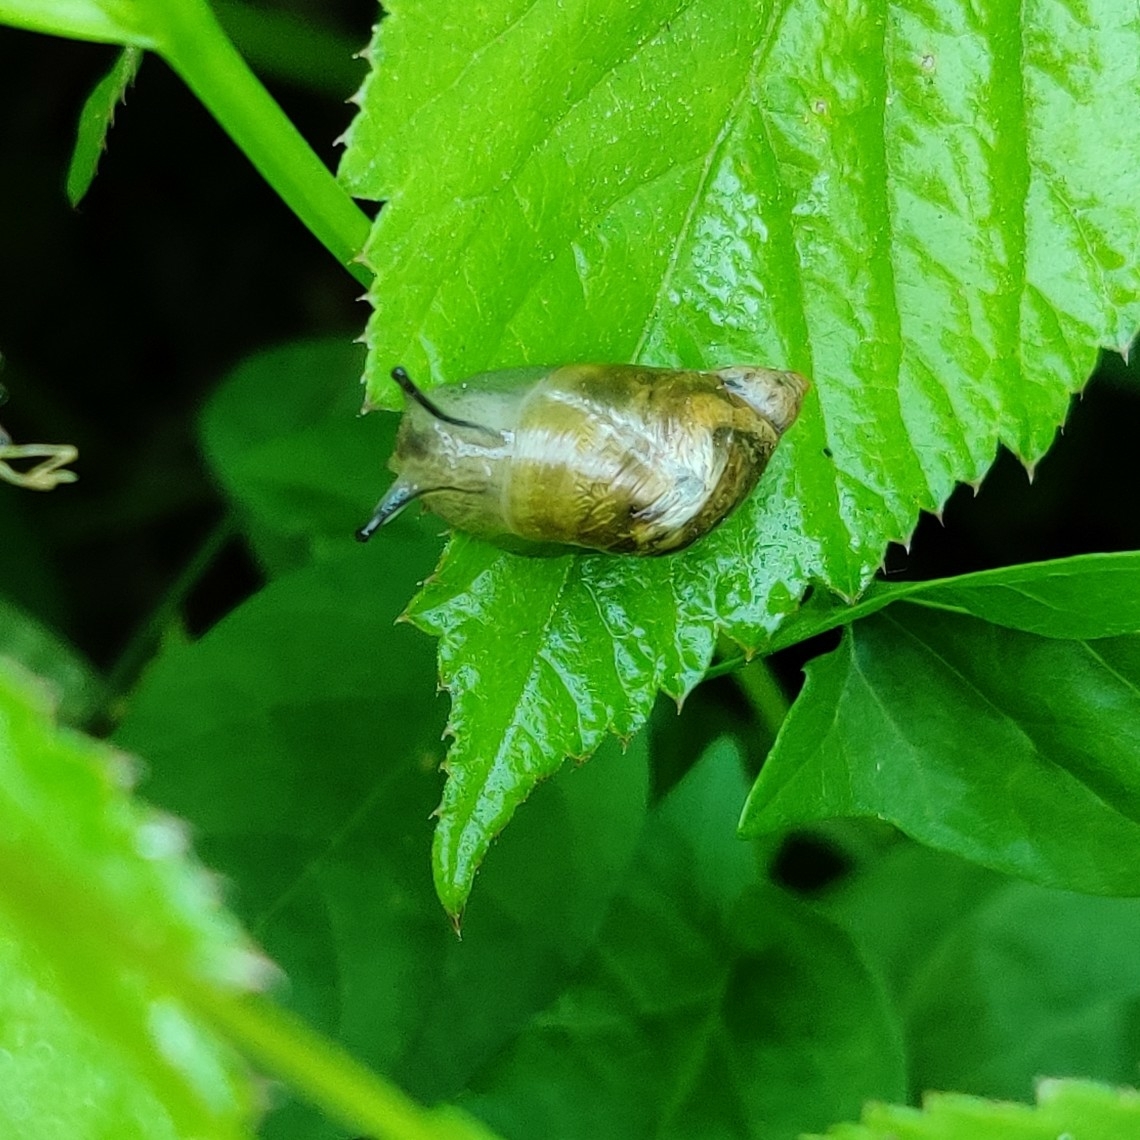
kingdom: Animalia
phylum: Mollusca
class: Gastropoda
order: Stylommatophora
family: Succineidae
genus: Succinea
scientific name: Succinea putris
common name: European ambersnail
